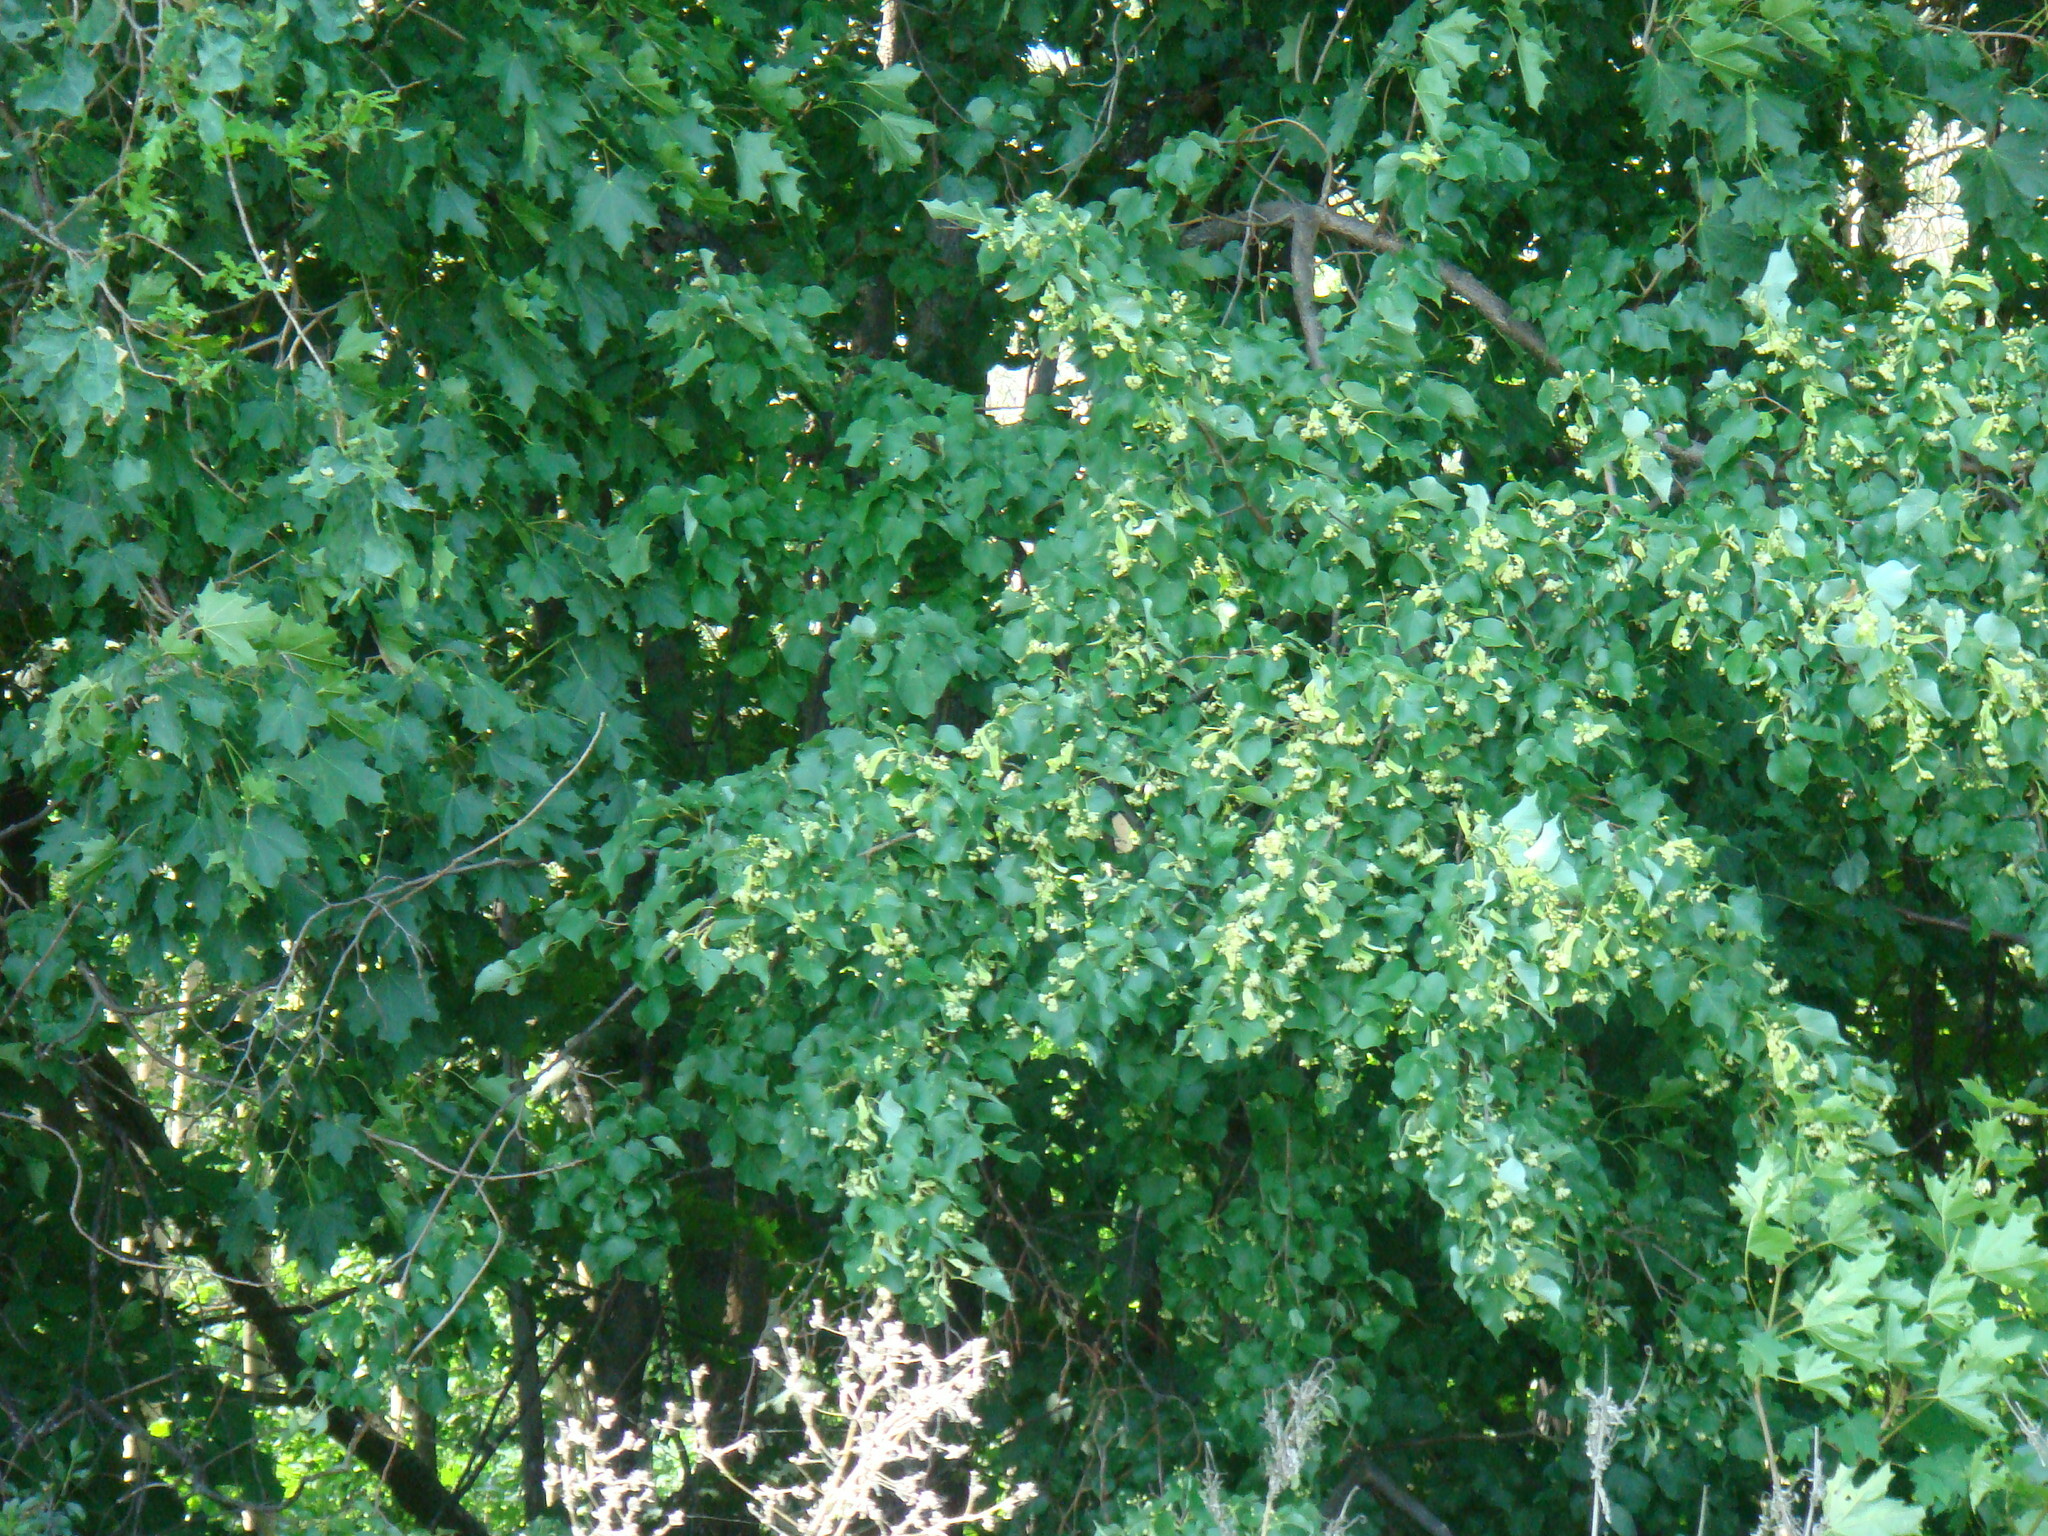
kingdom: Plantae
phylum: Tracheophyta
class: Magnoliopsida
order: Malvales
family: Malvaceae
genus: Tilia
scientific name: Tilia cordata
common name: Small-leaved lime
